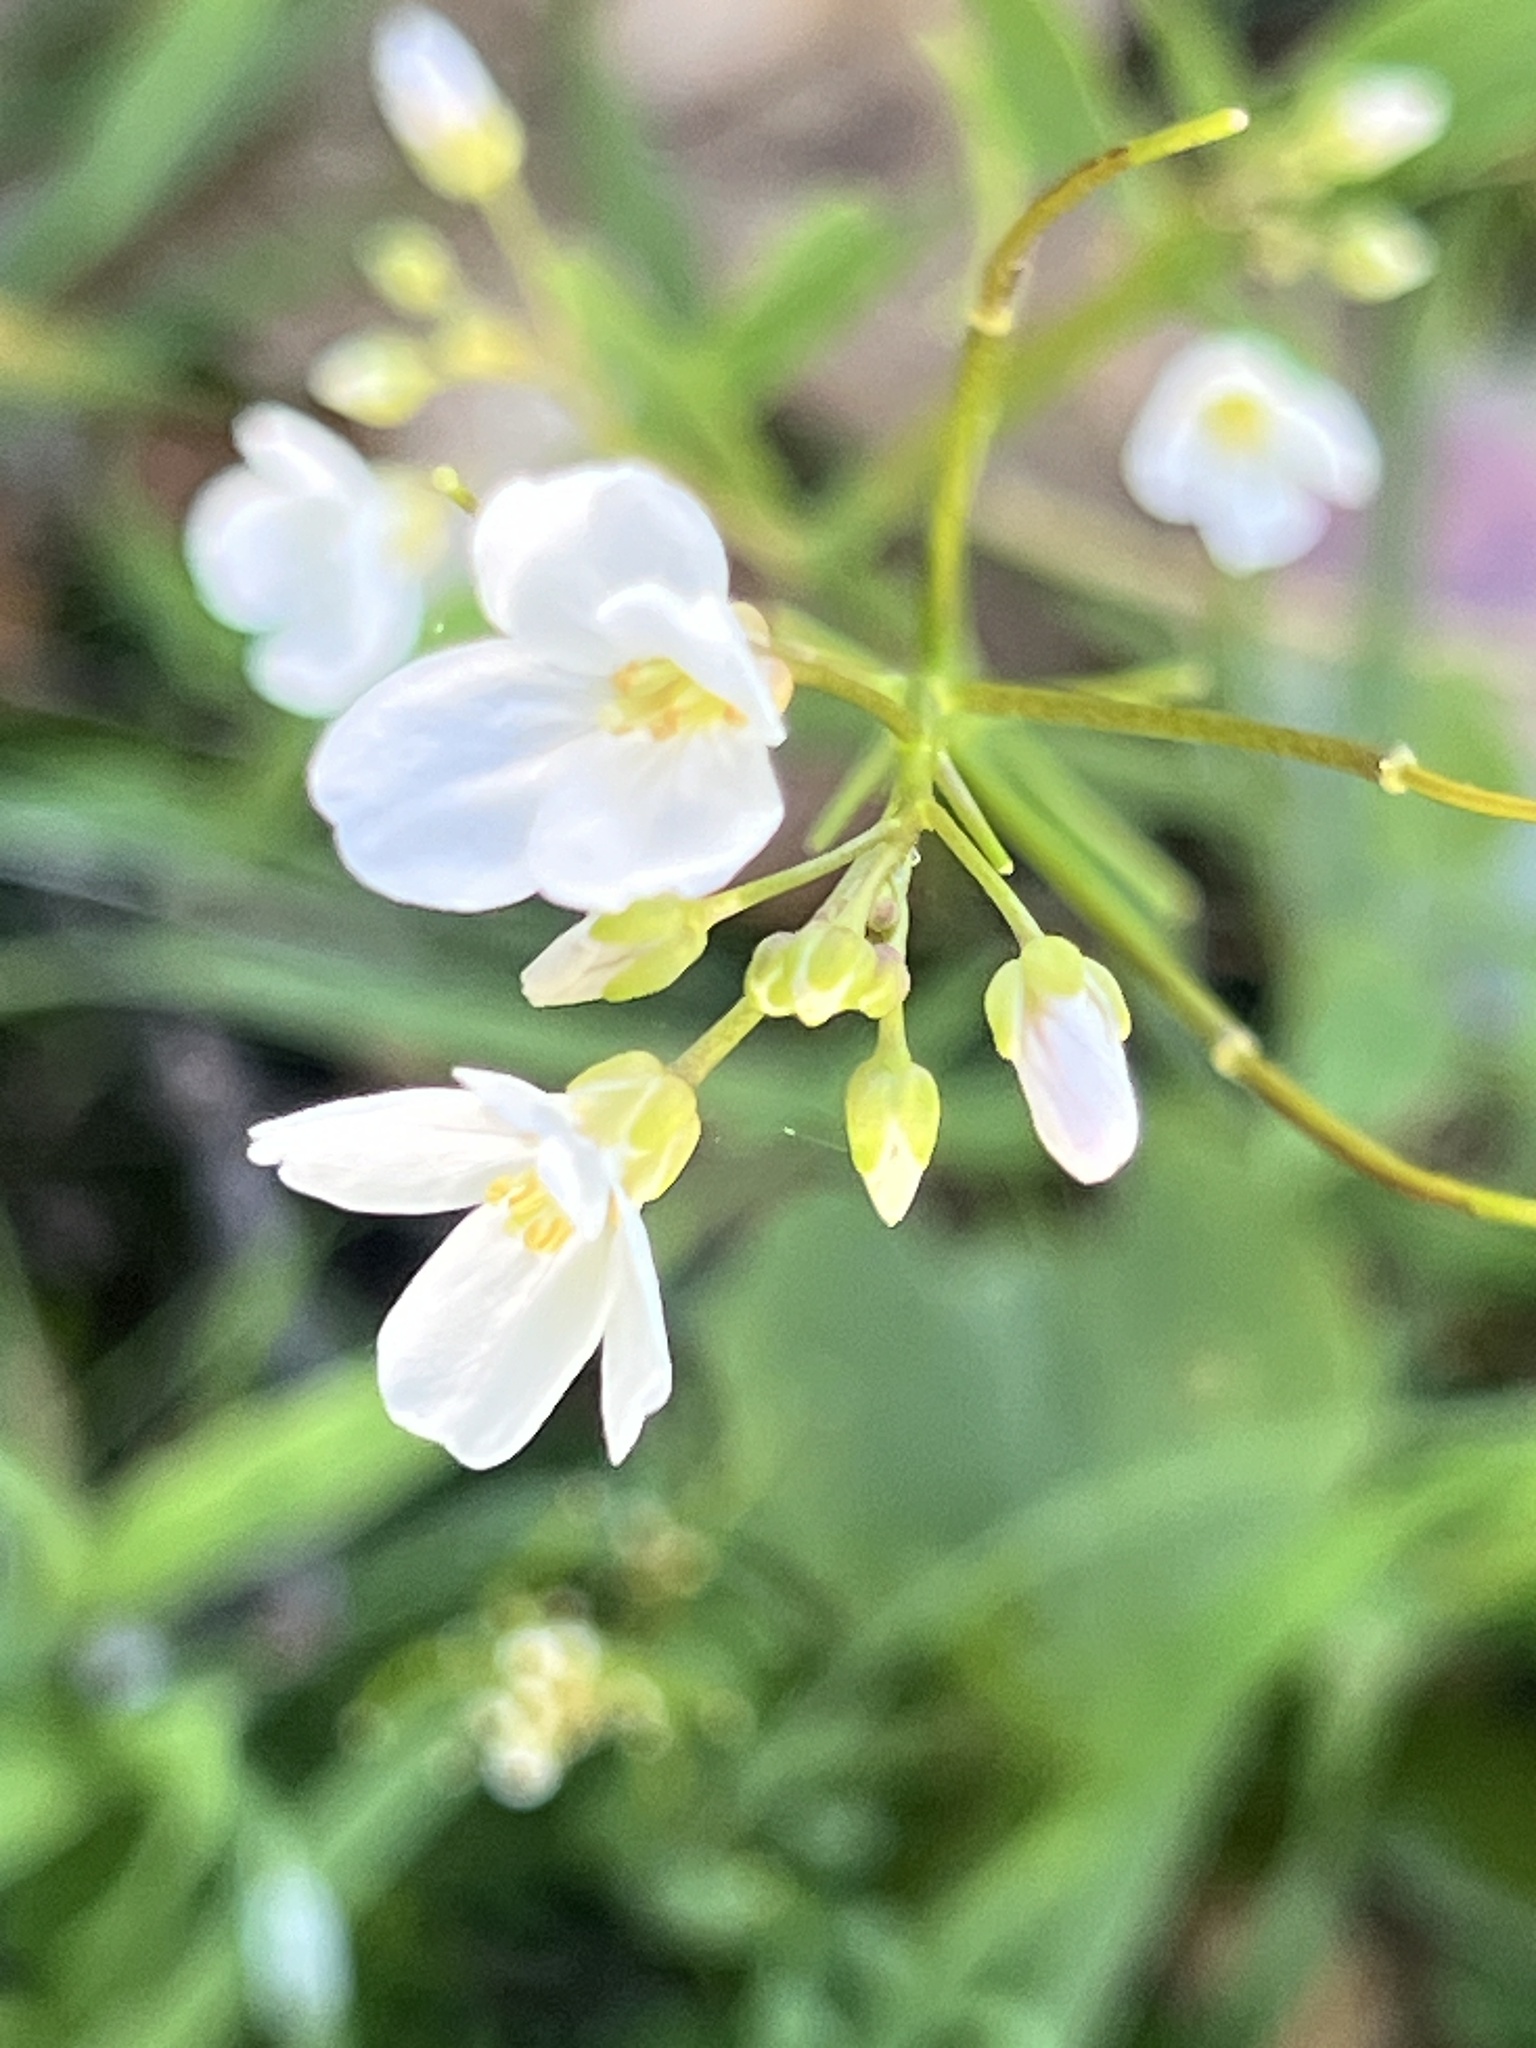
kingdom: Plantae
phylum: Tracheophyta
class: Magnoliopsida
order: Brassicales
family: Brassicaceae
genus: Cardamine
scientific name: Cardamine californica
